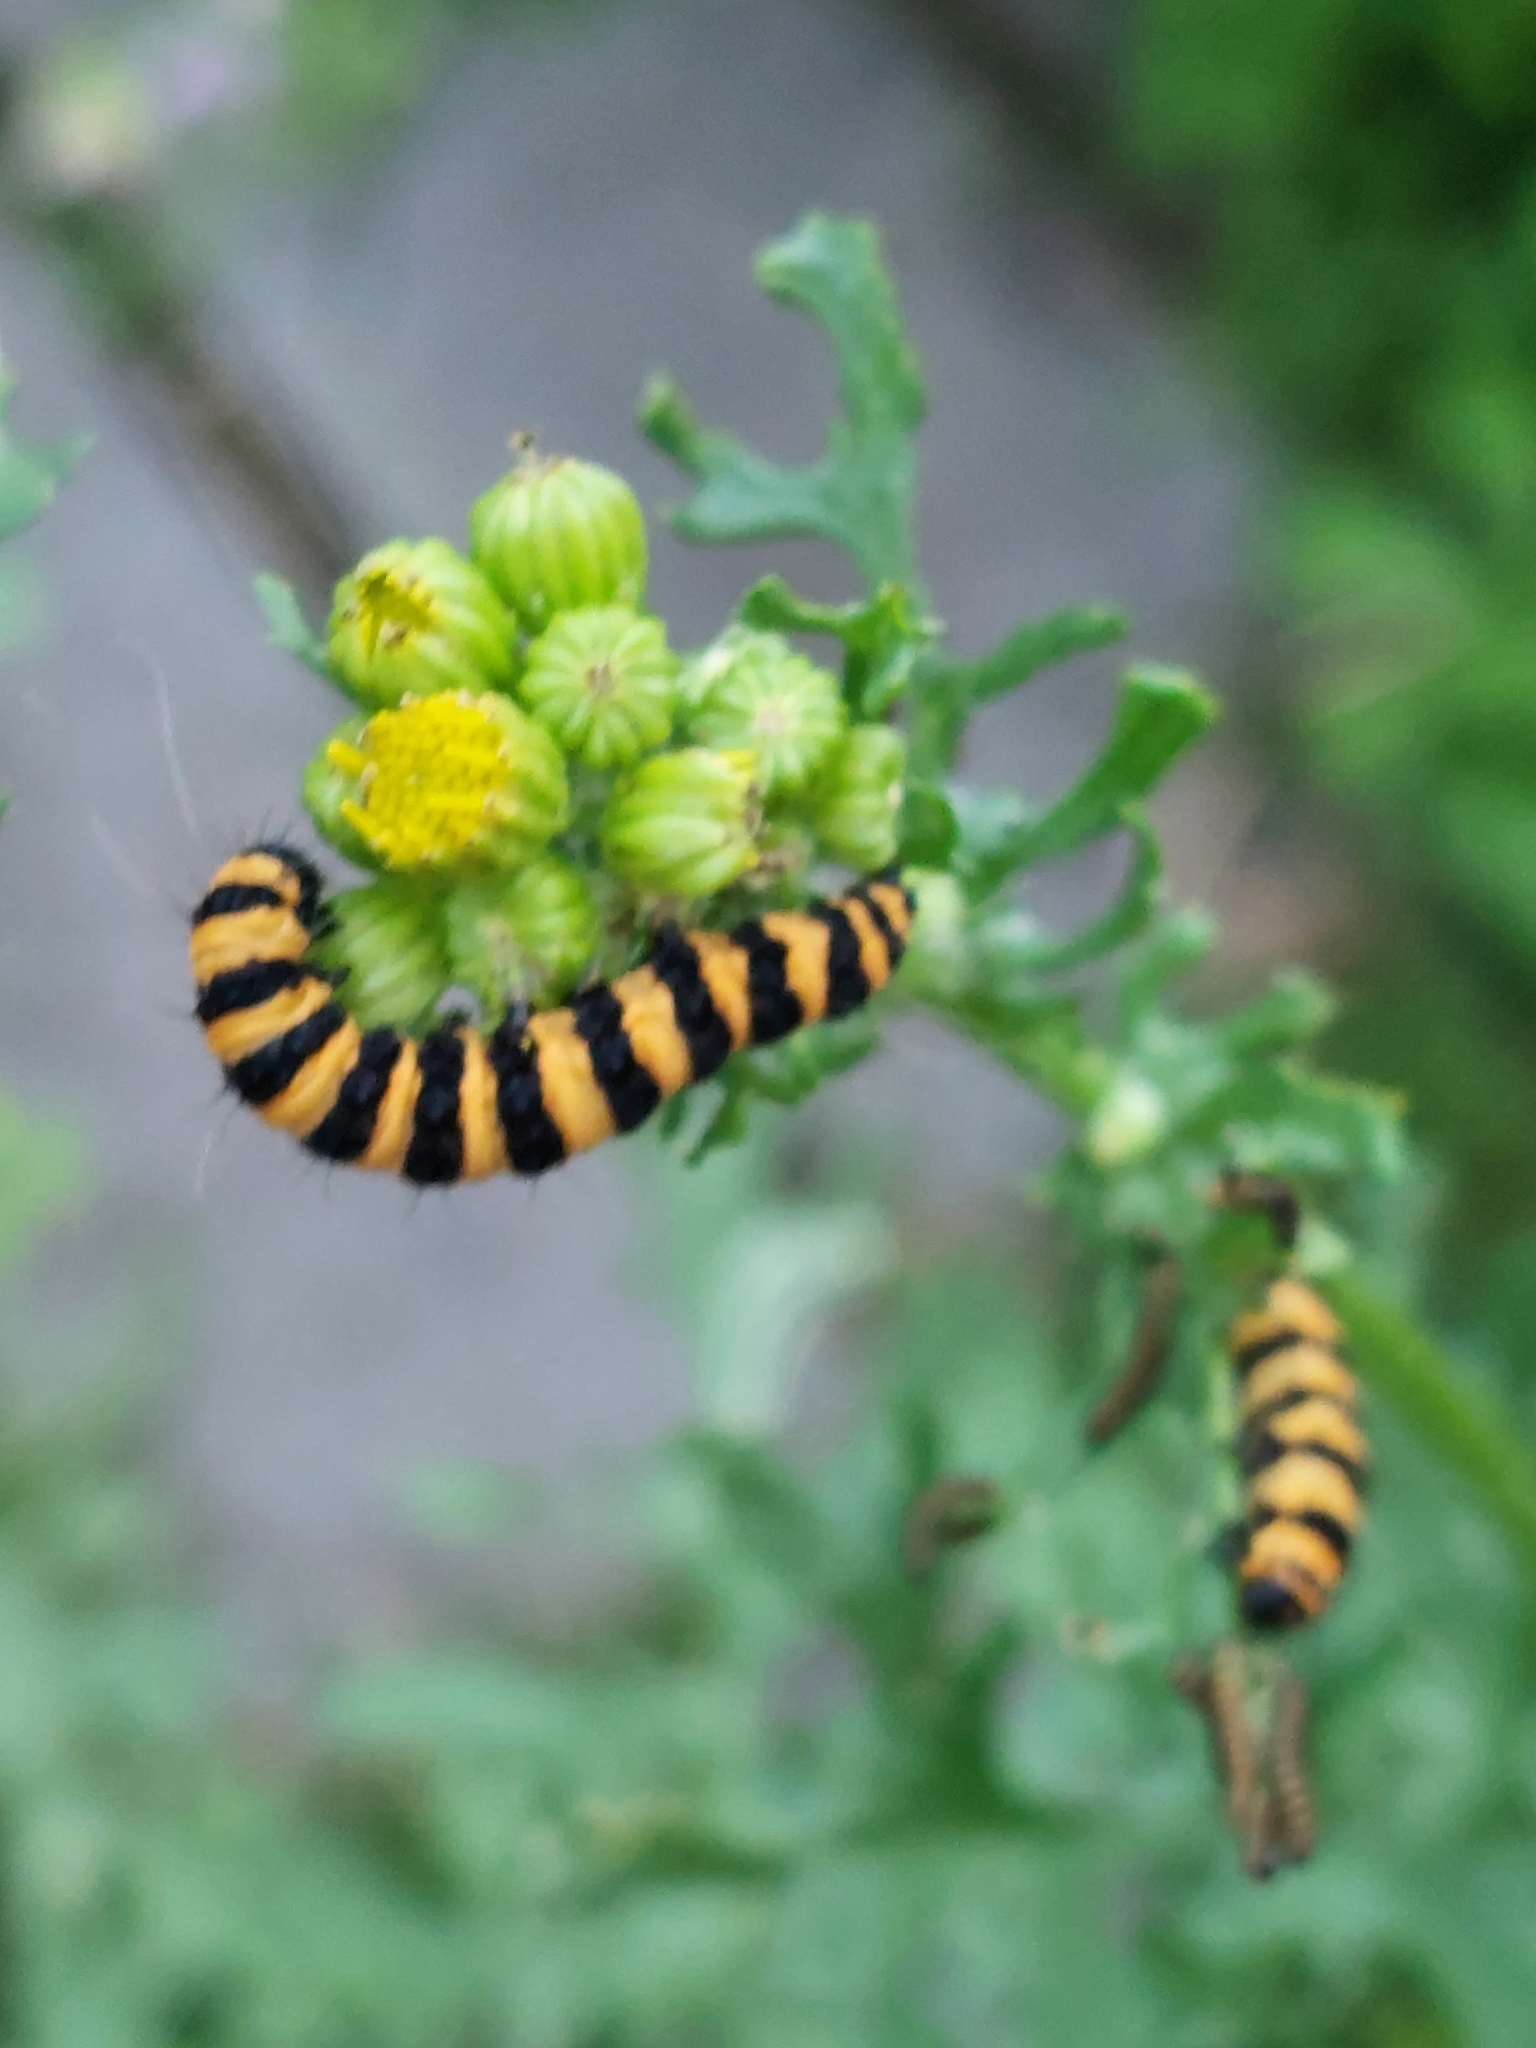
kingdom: Animalia
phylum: Arthropoda
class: Insecta
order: Lepidoptera
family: Erebidae
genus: Tyria
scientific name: Tyria jacobaeae
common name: Cinnabar
